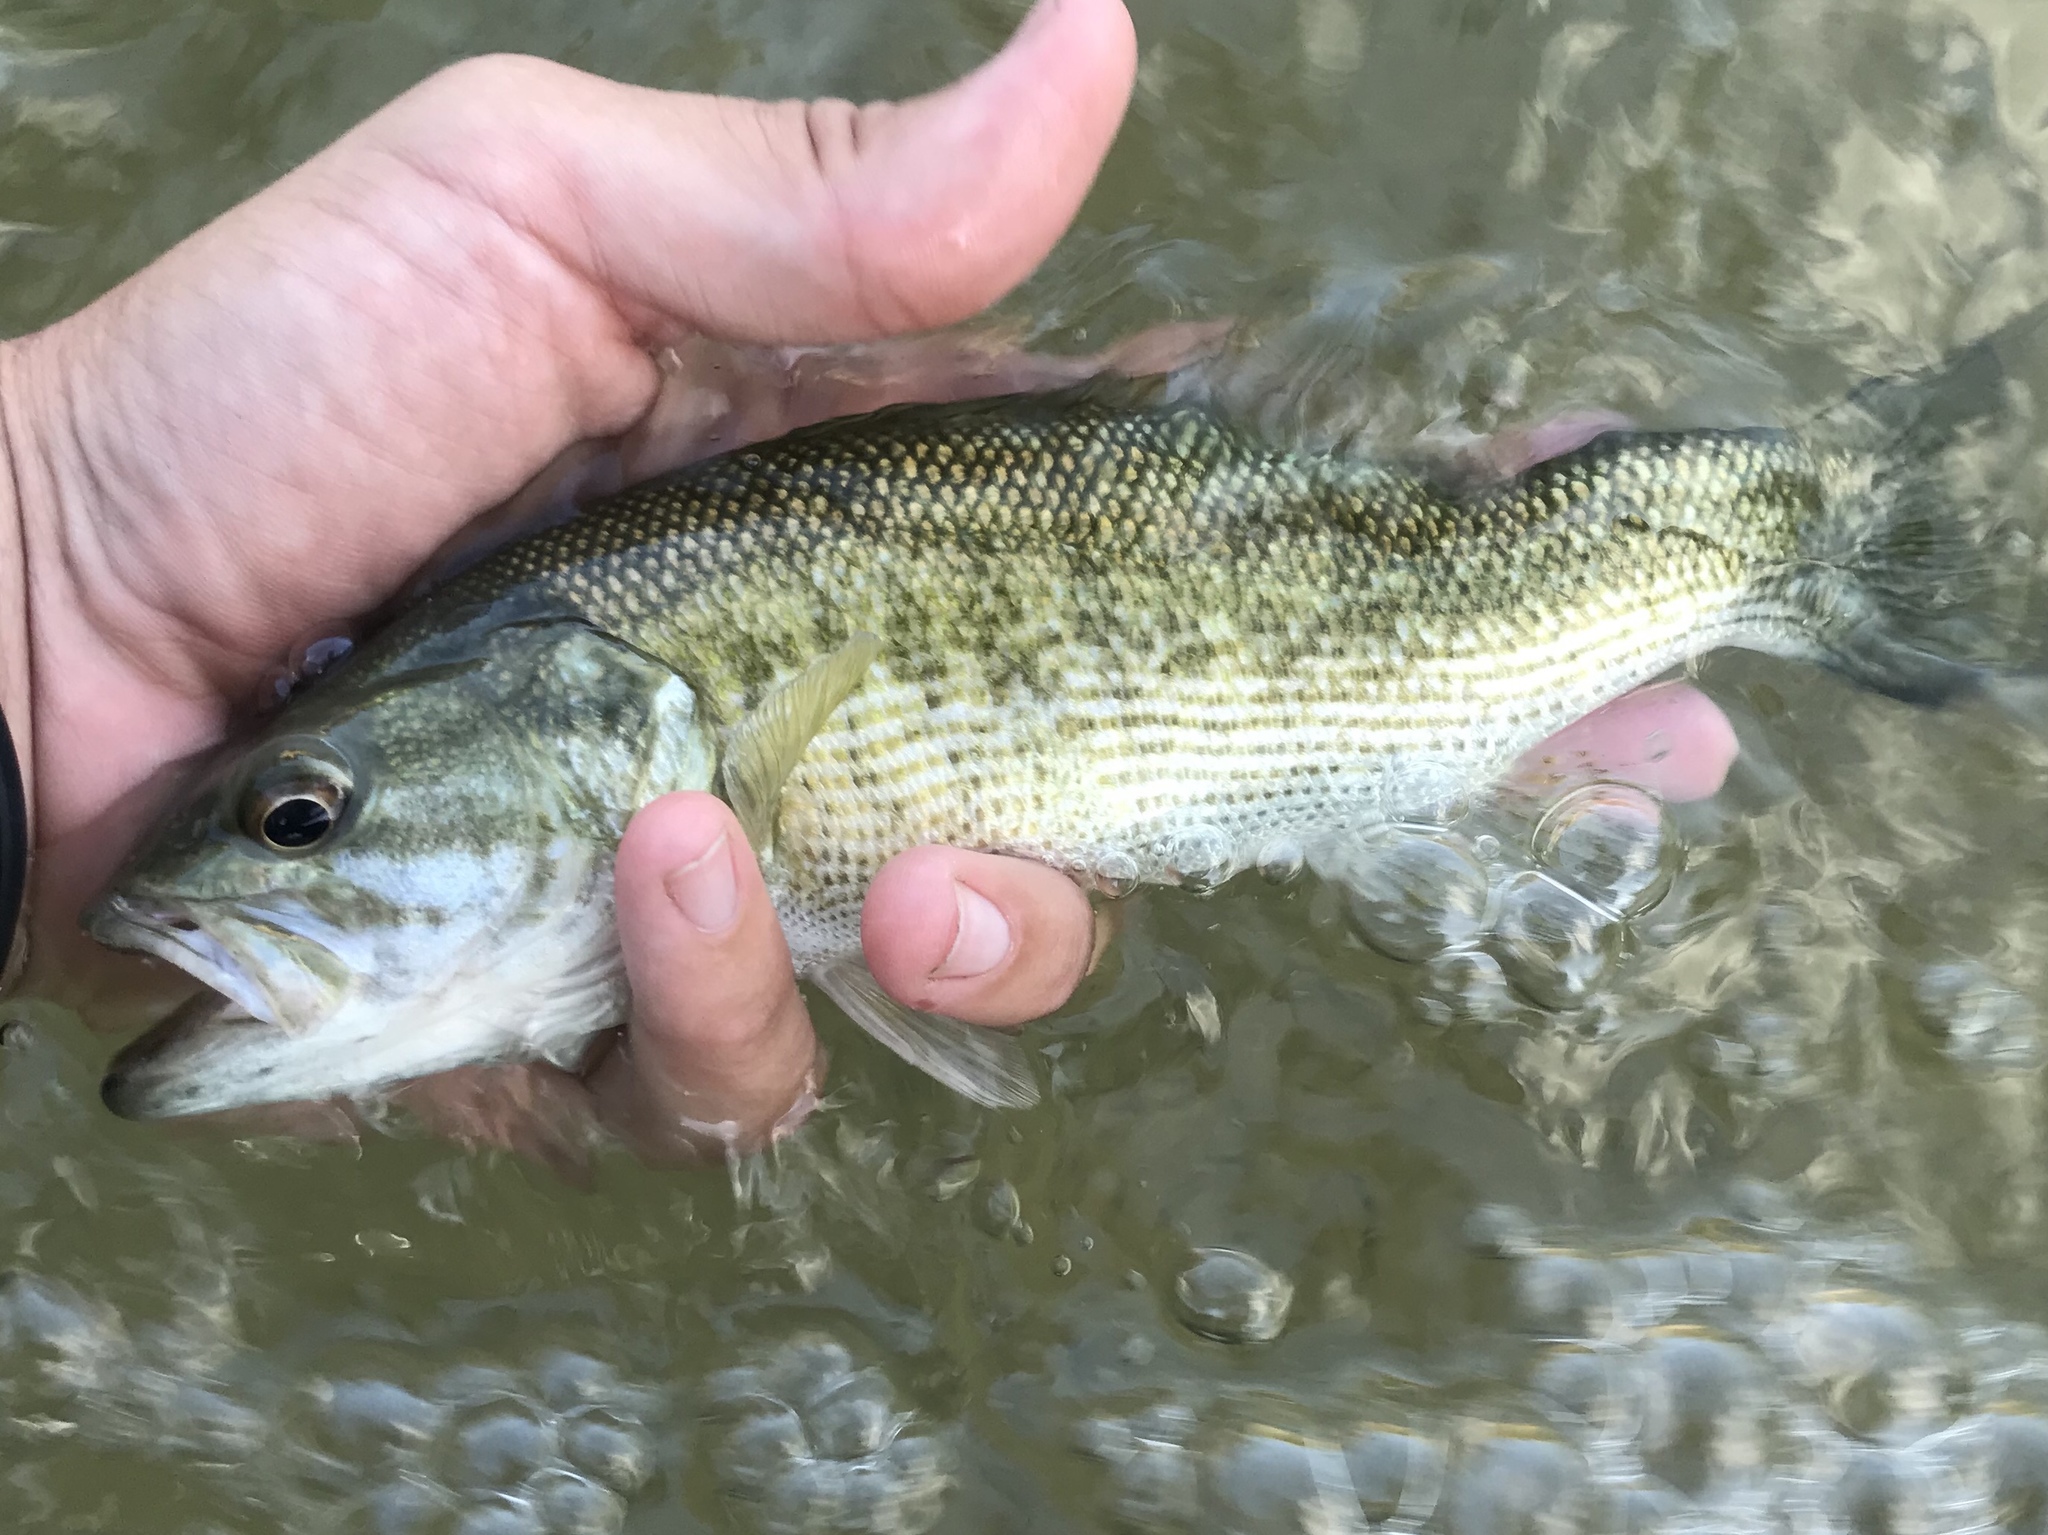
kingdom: Animalia
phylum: Chordata
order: Perciformes
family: Centrarchidae
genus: Micropterus
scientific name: Micropterus treculii
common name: Guadalupe bass
